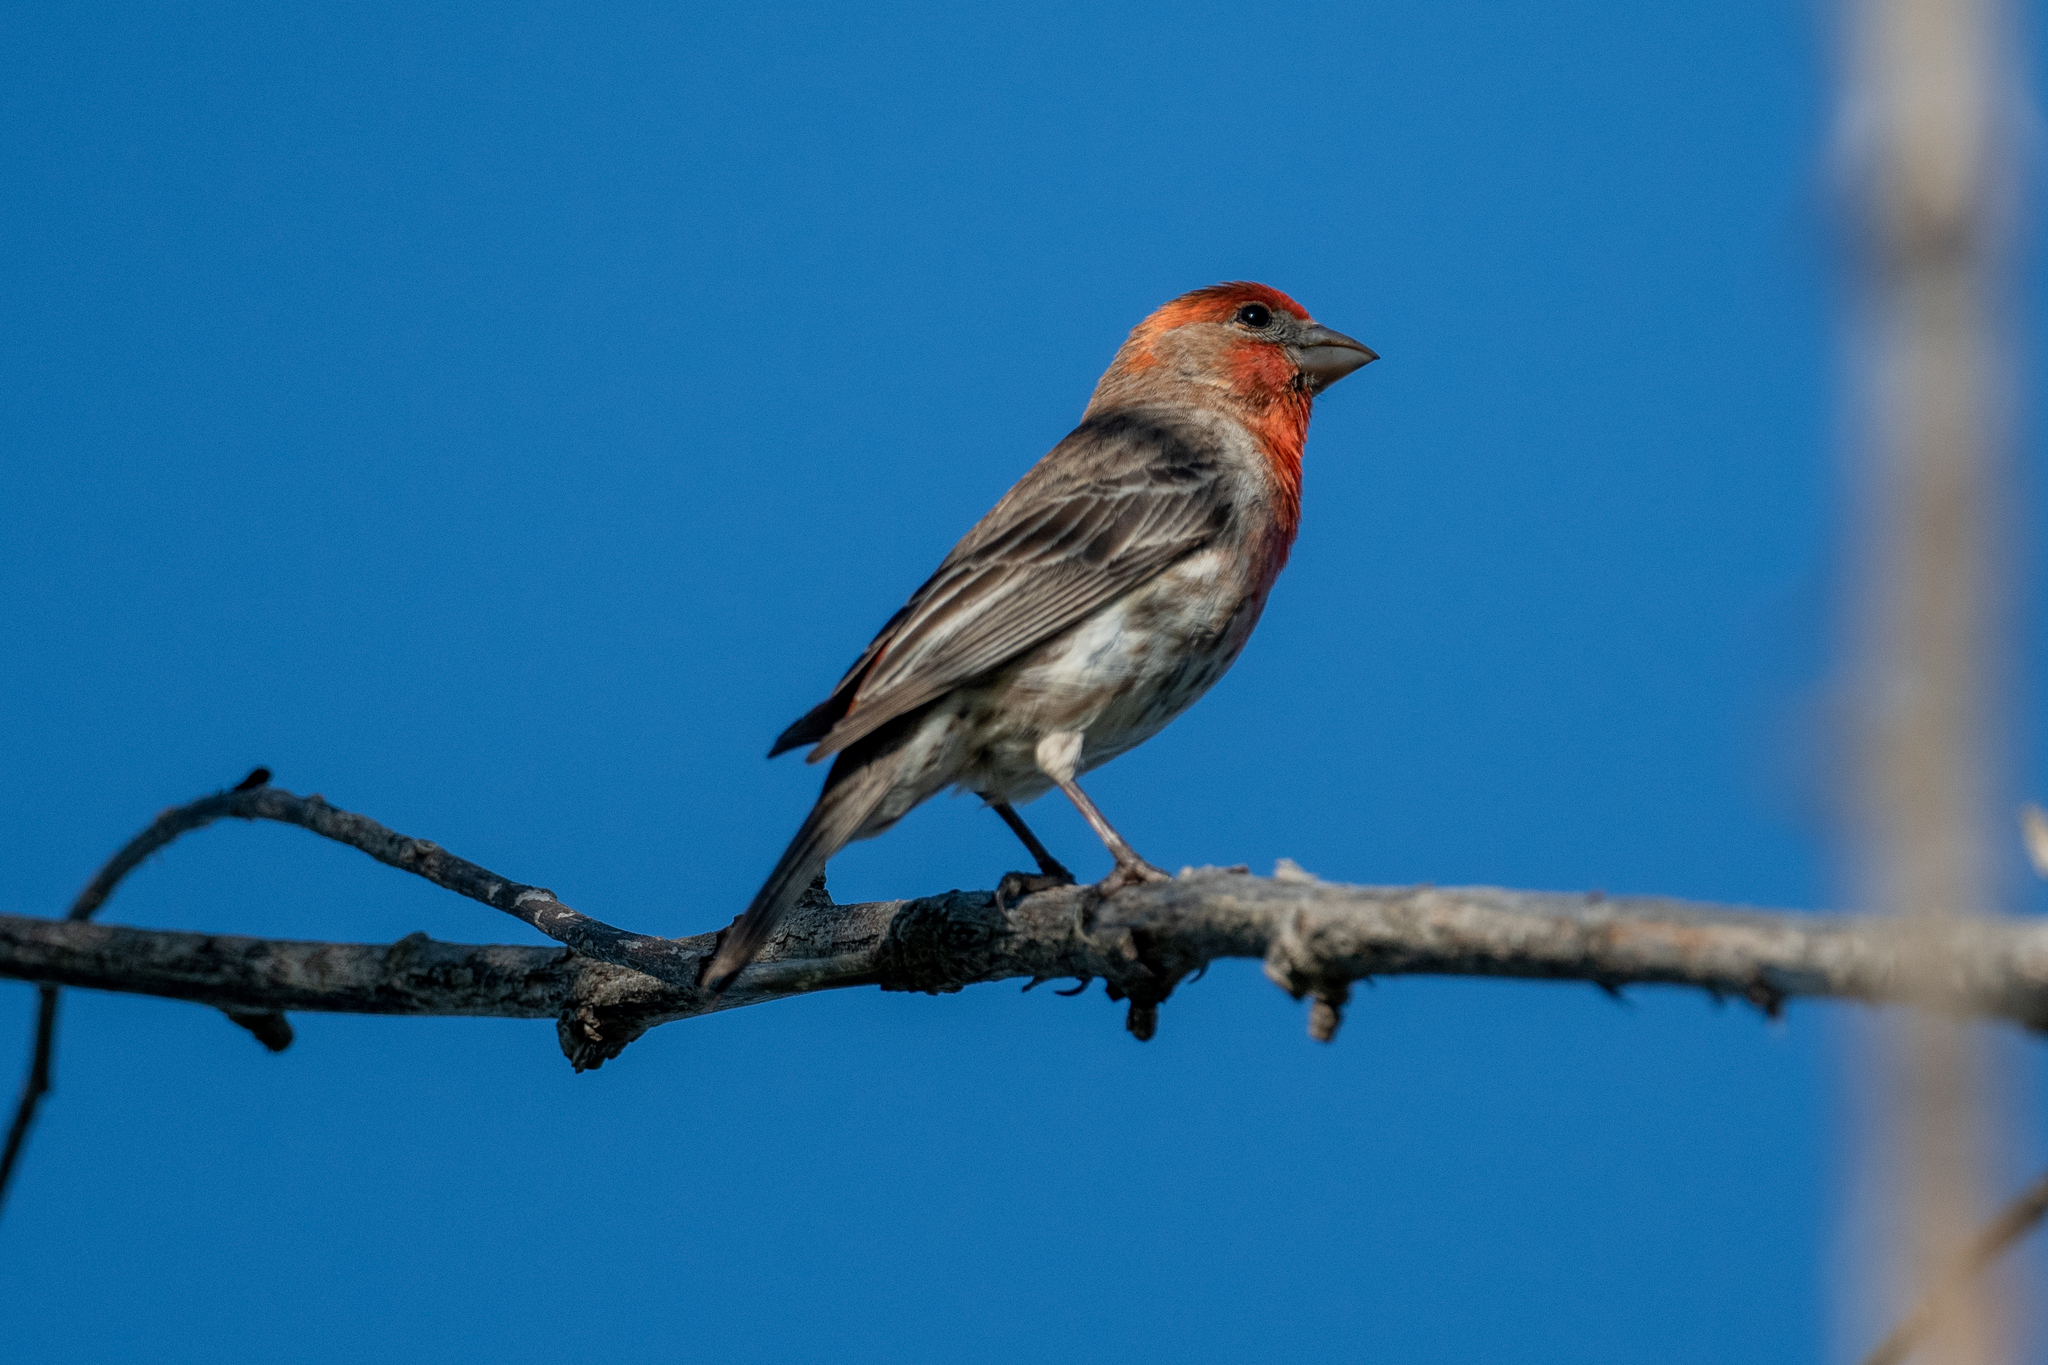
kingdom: Animalia
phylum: Chordata
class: Aves
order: Passeriformes
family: Fringillidae
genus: Haemorhous
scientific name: Haemorhous mexicanus
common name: House finch
